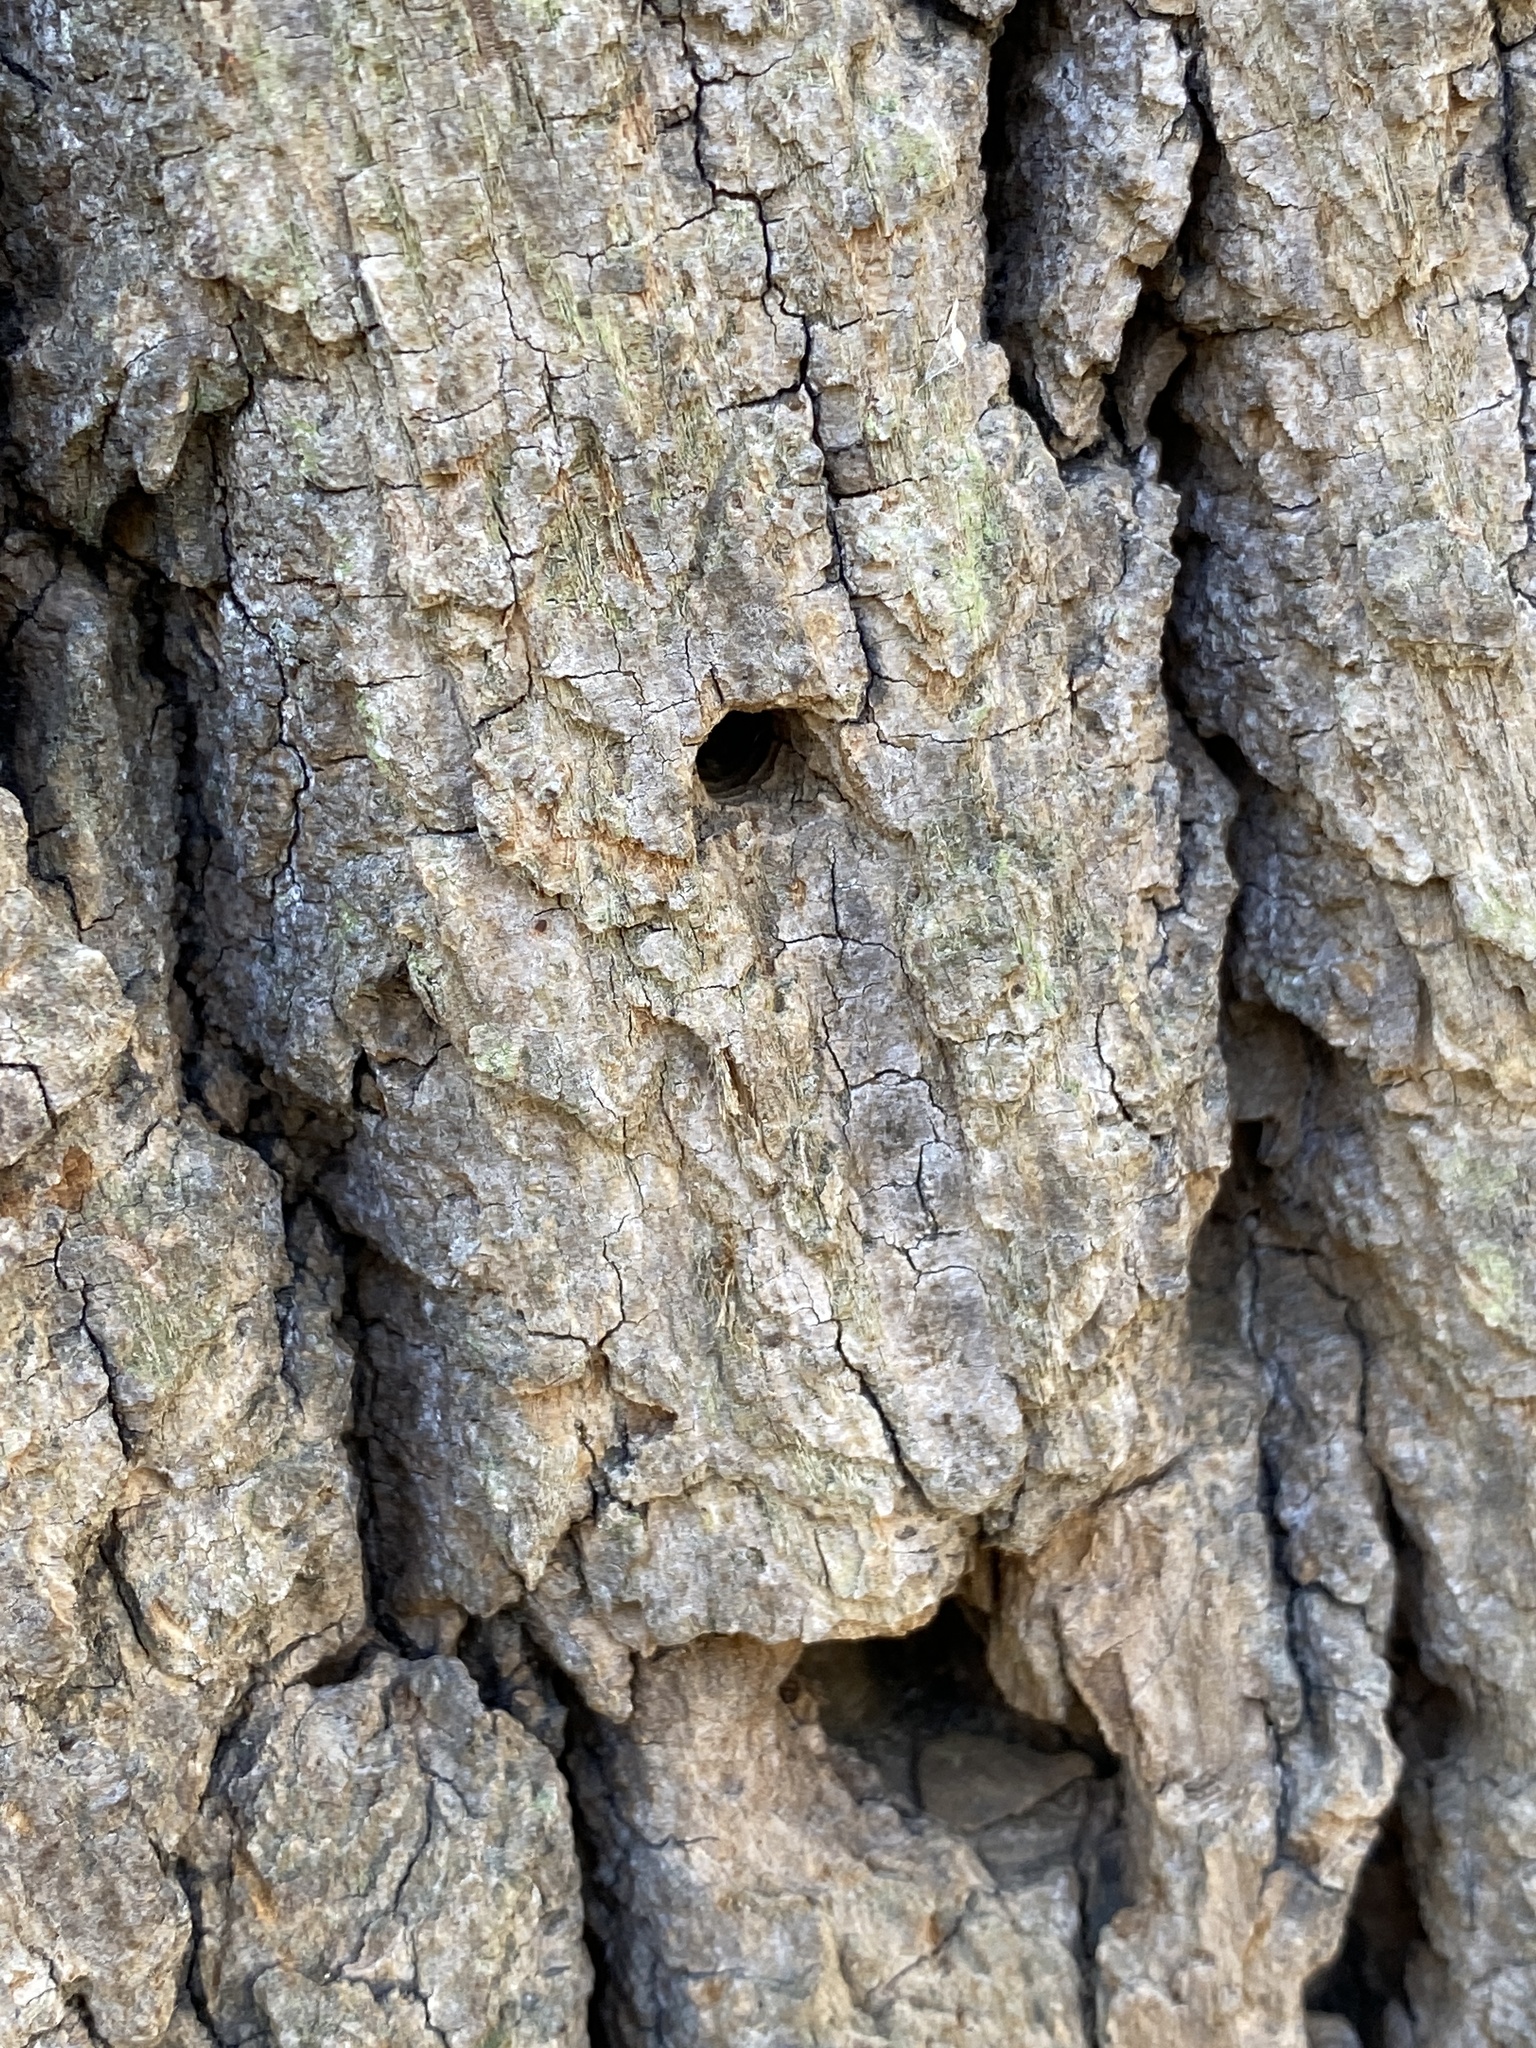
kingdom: Animalia
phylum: Arthropoda
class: Insecta
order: Coleoptera
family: Buprestidae
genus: Agrilus
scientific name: Agrilus planipennis
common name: Emerald ash borer
